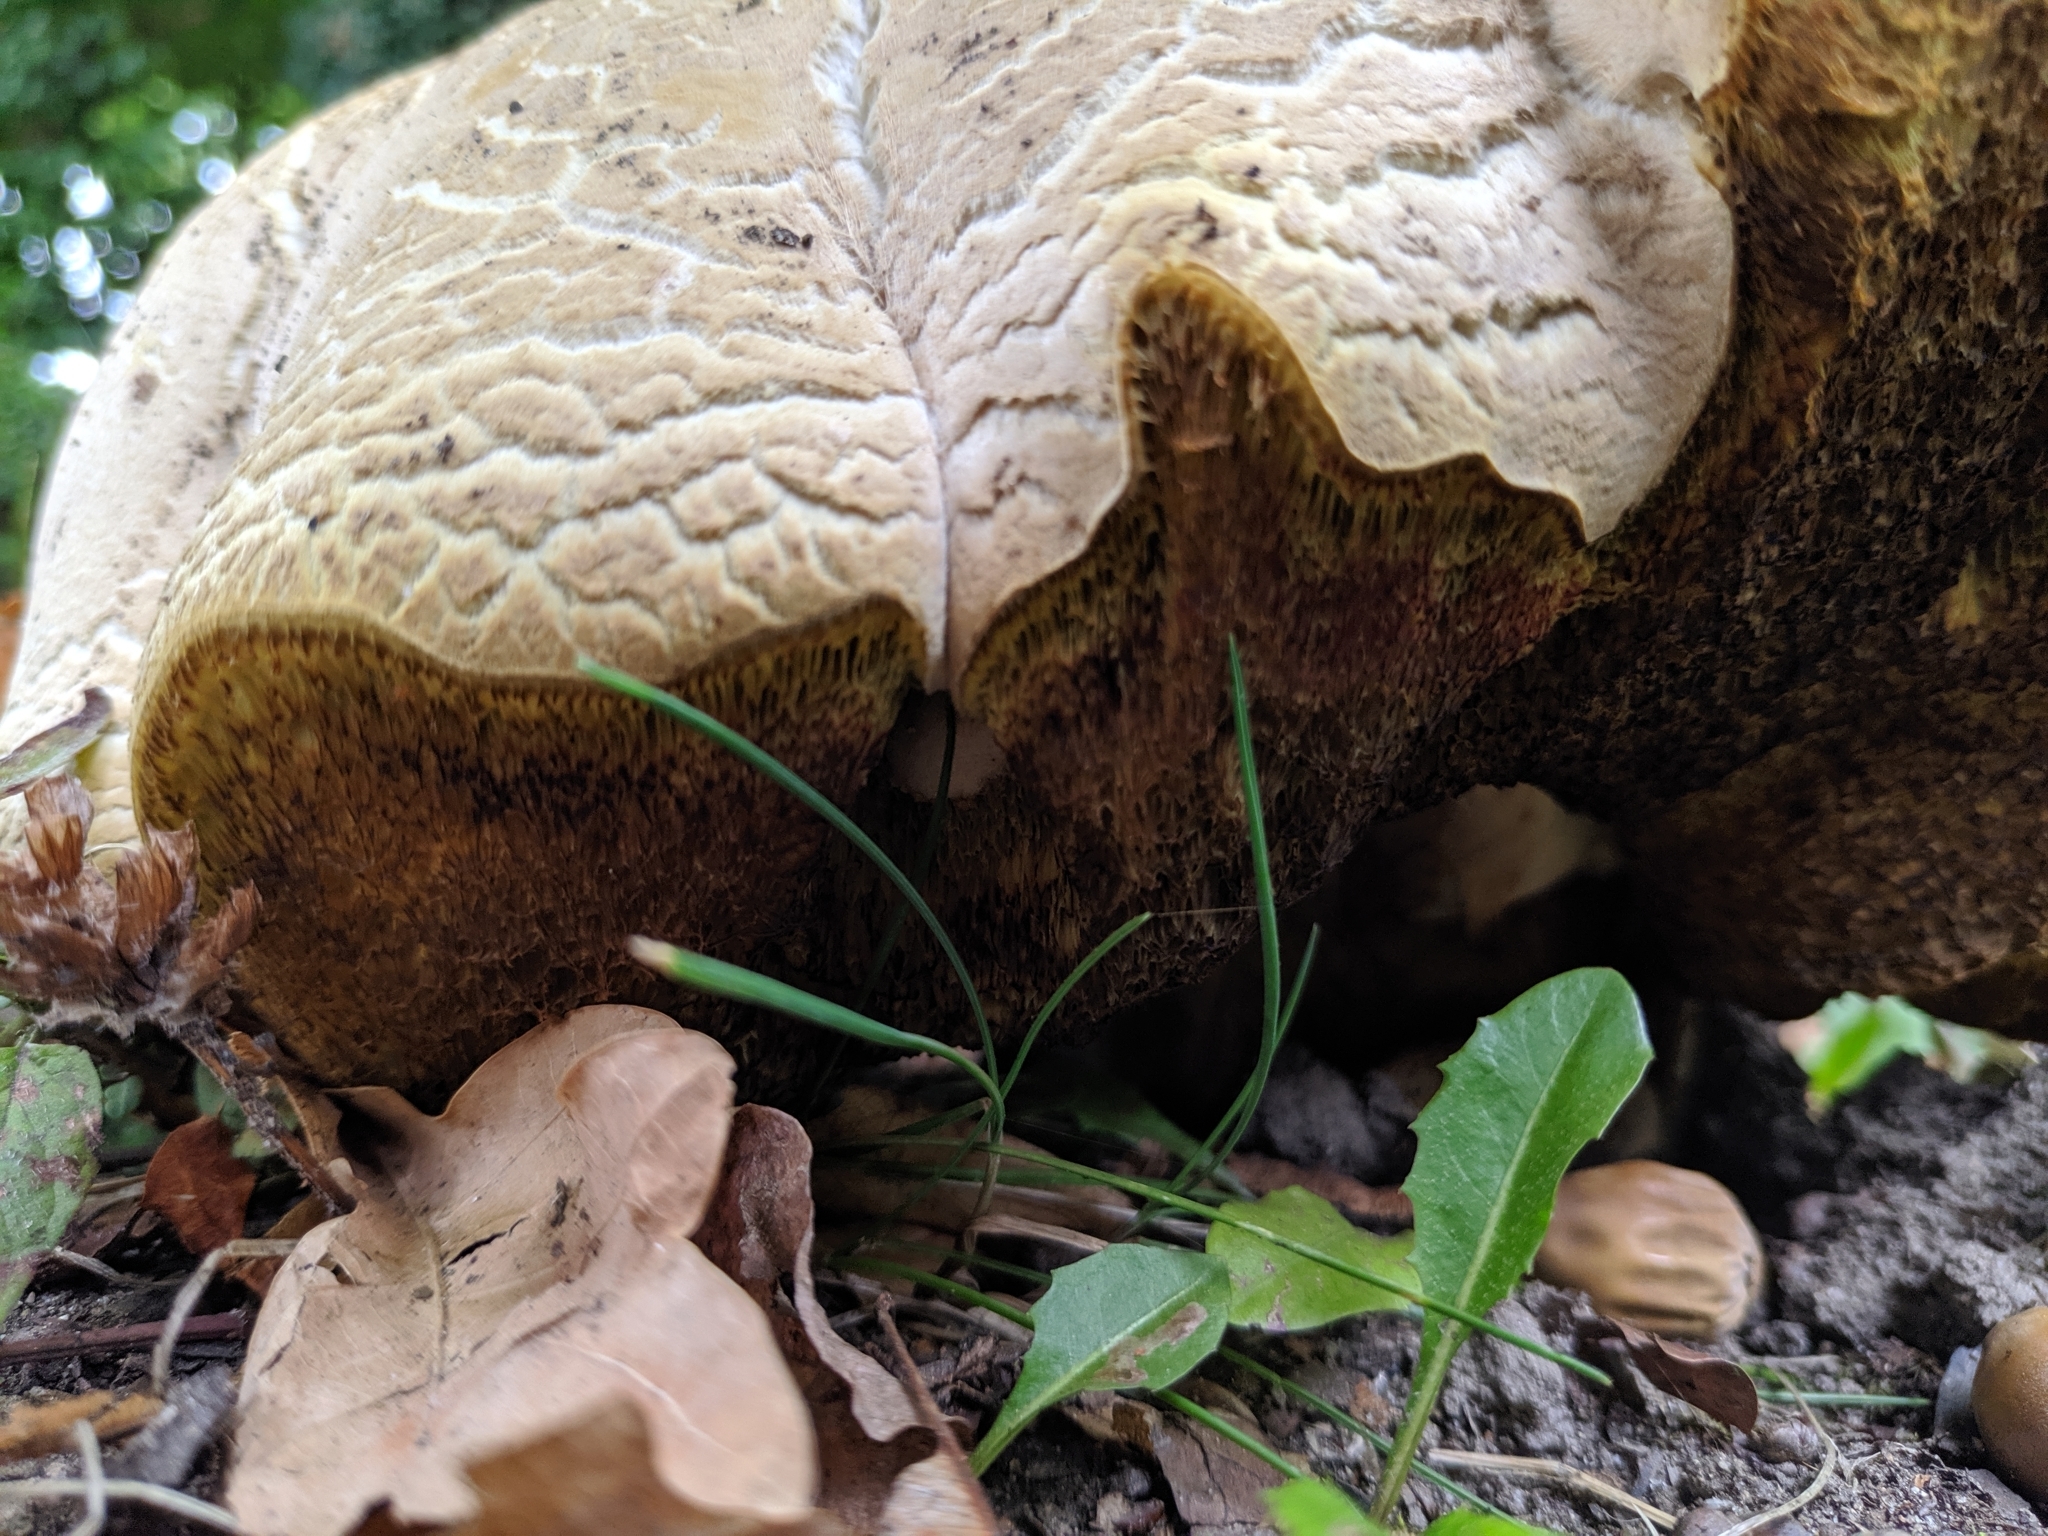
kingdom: Fungi
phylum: Basidiomycota
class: Agaricomycetes
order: Boletales
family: Boletaceae
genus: Caloboletus
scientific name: Caloboletus radicans
